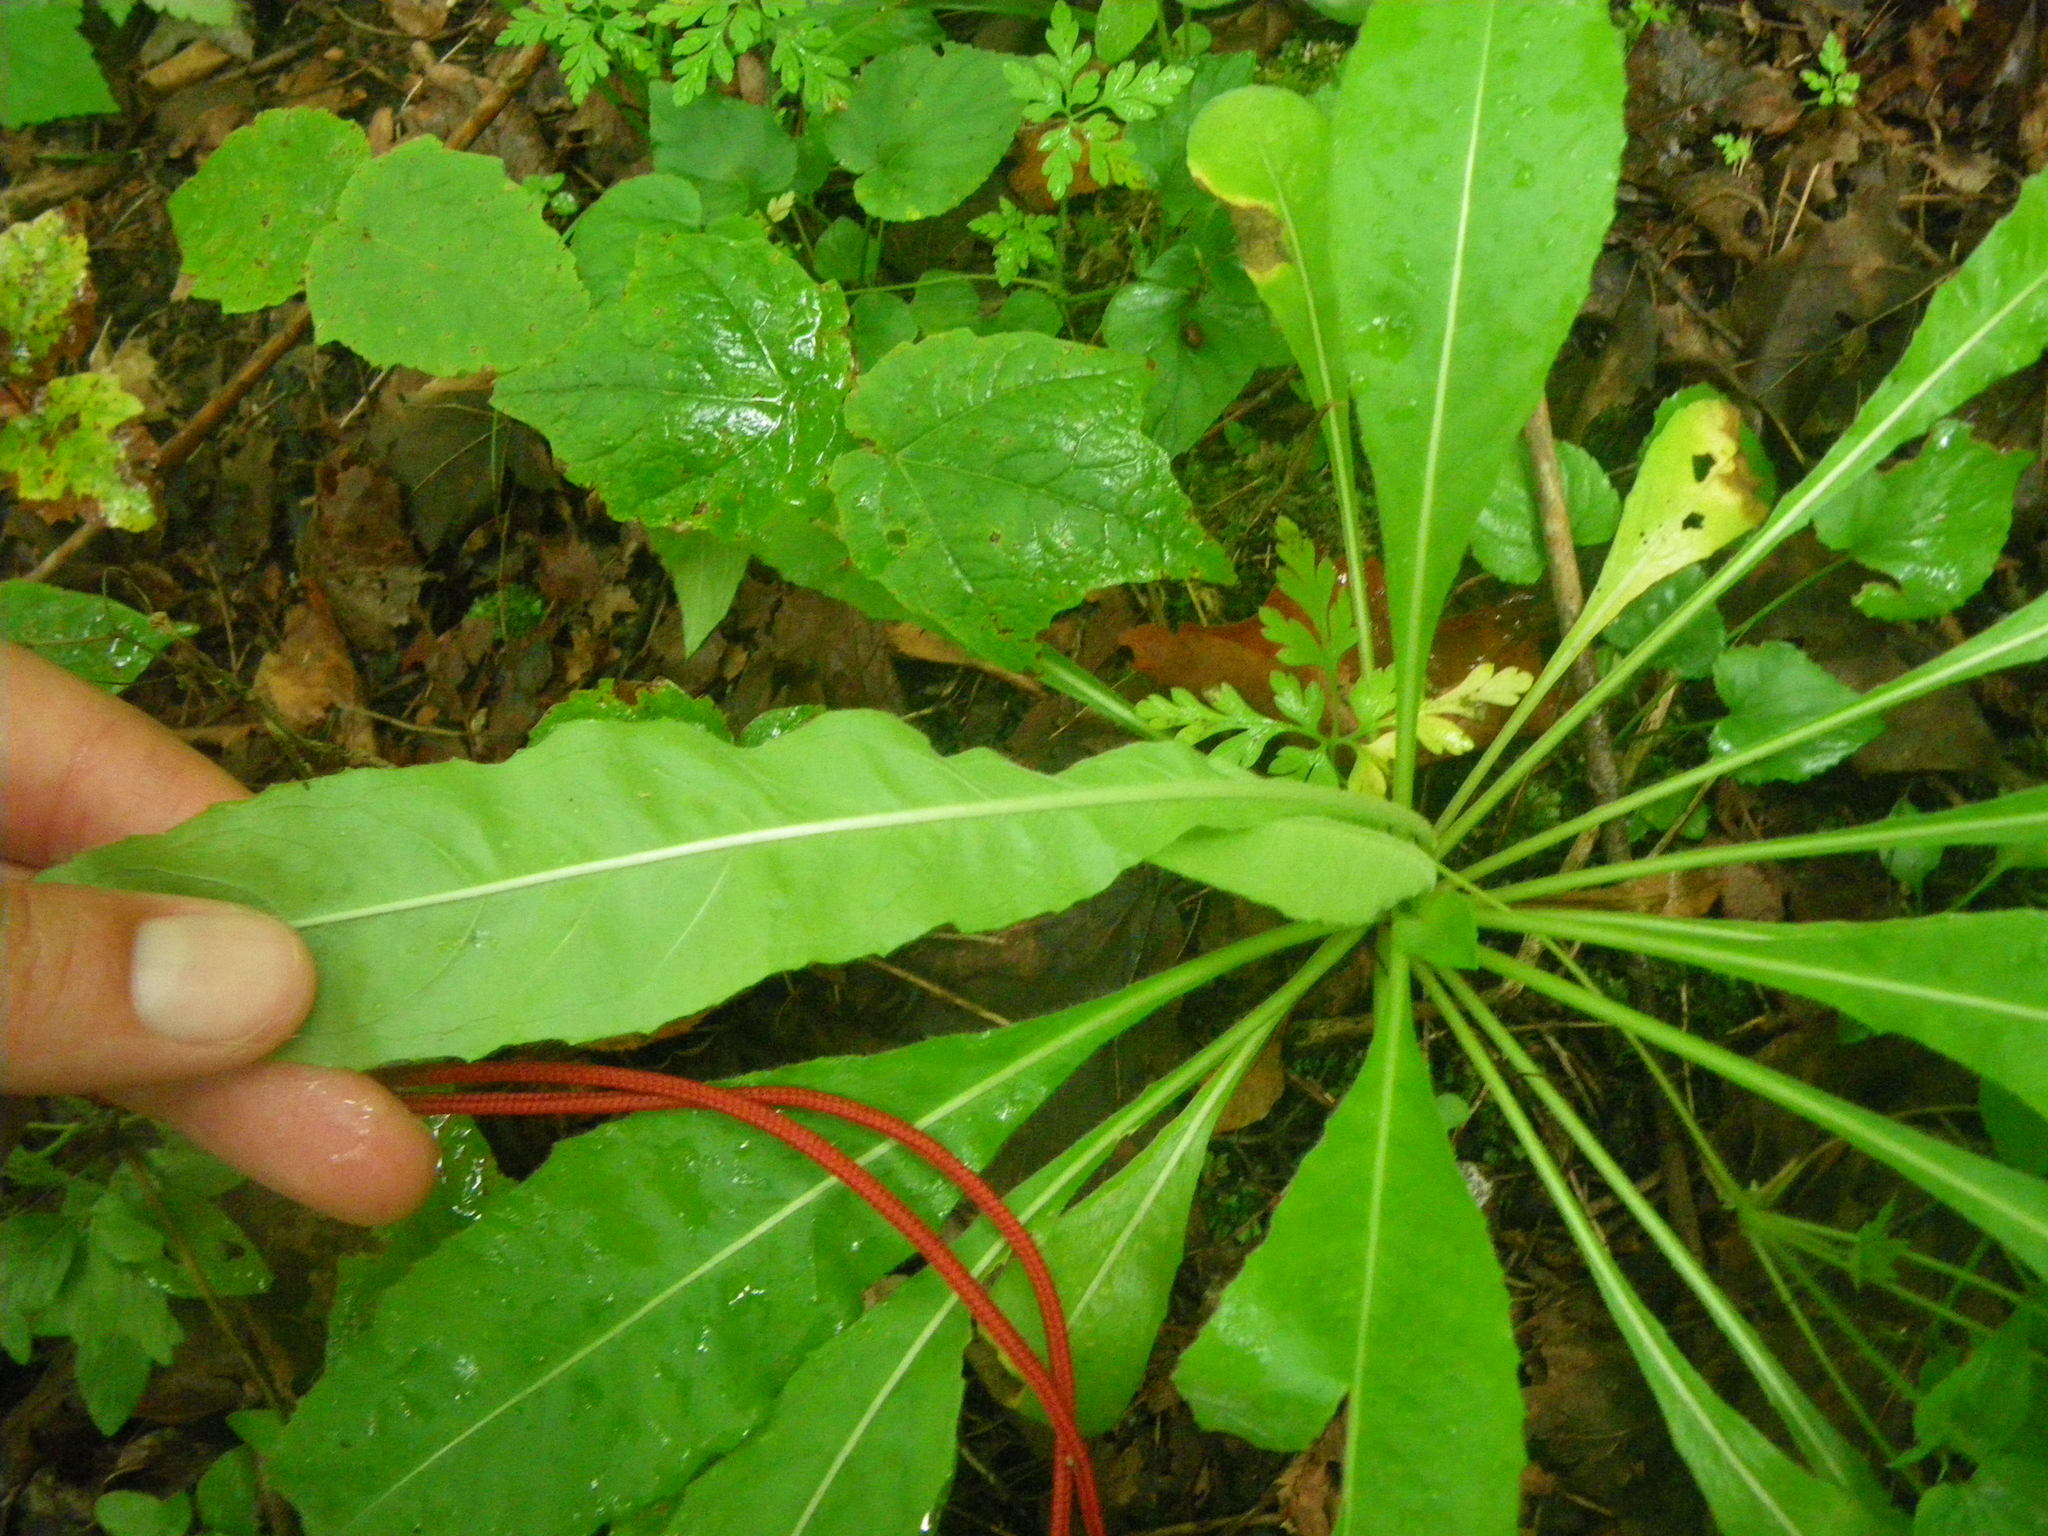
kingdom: Plantae
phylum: Tracheophyta
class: Magnoliopsida
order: Brassicales
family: Brassicaceae
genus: Hesperis
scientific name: Hesperis matronalis
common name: Dame's-violet
